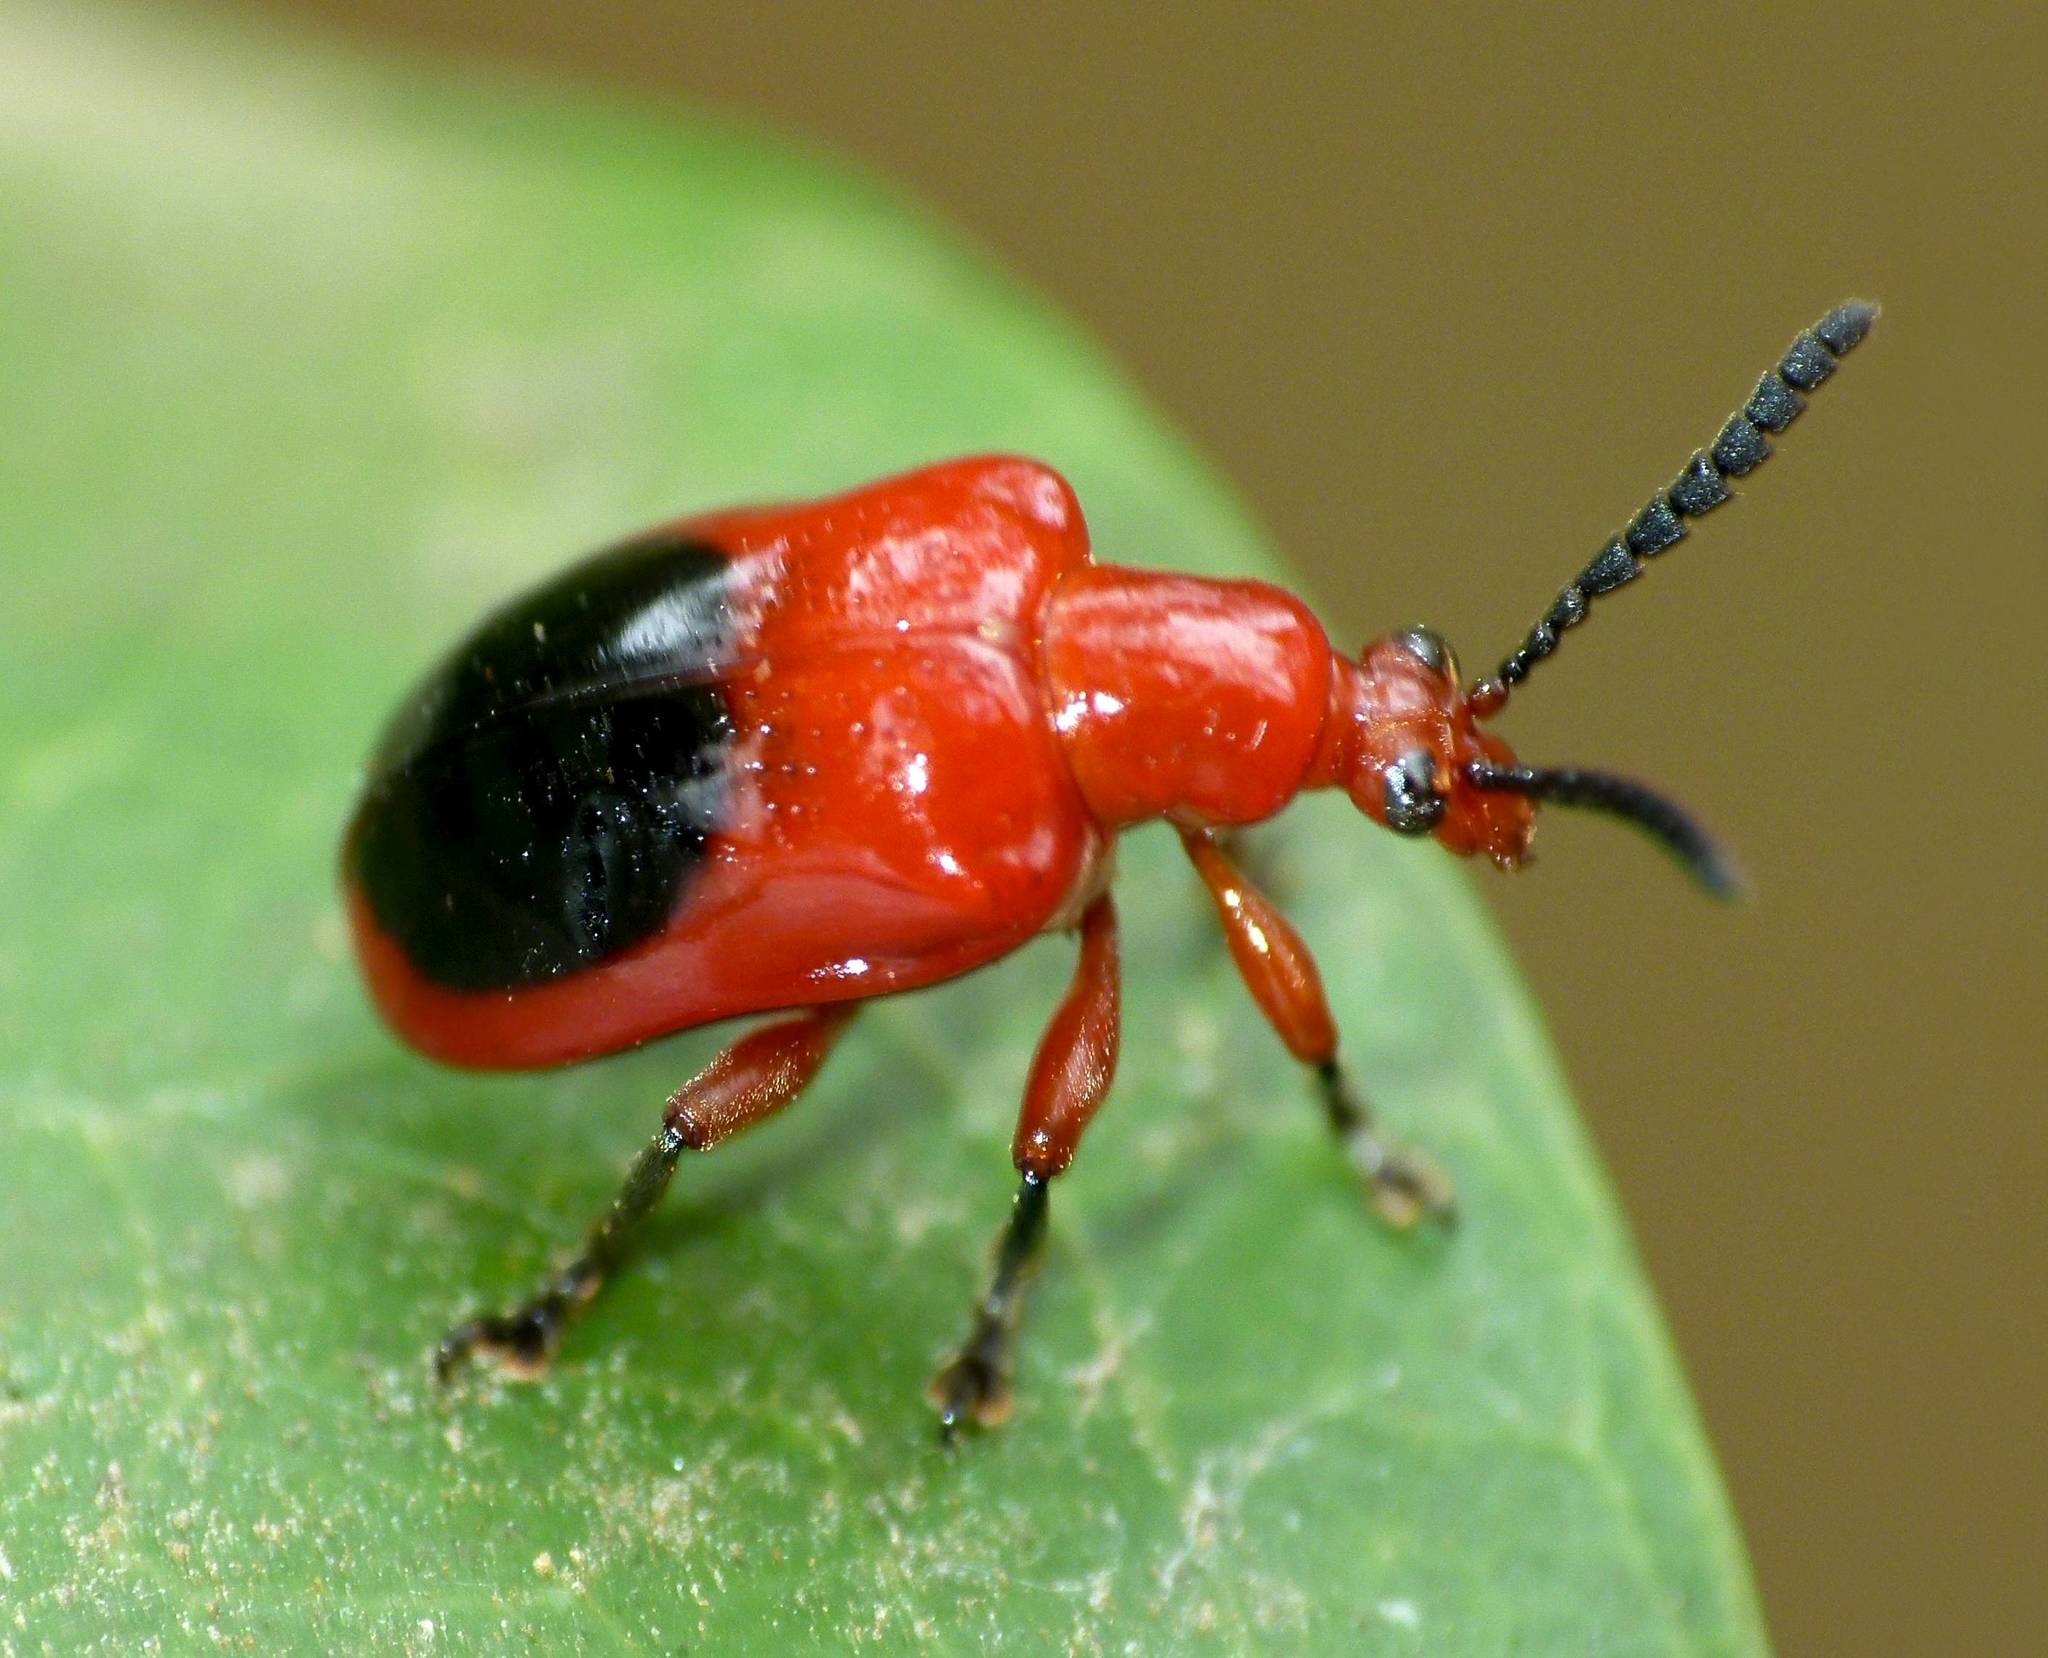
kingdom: Animalia
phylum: Arthropoda
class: Insecta
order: Coleoptera
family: Chrysomelidae
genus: Lilioceris
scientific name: Lilioceris
